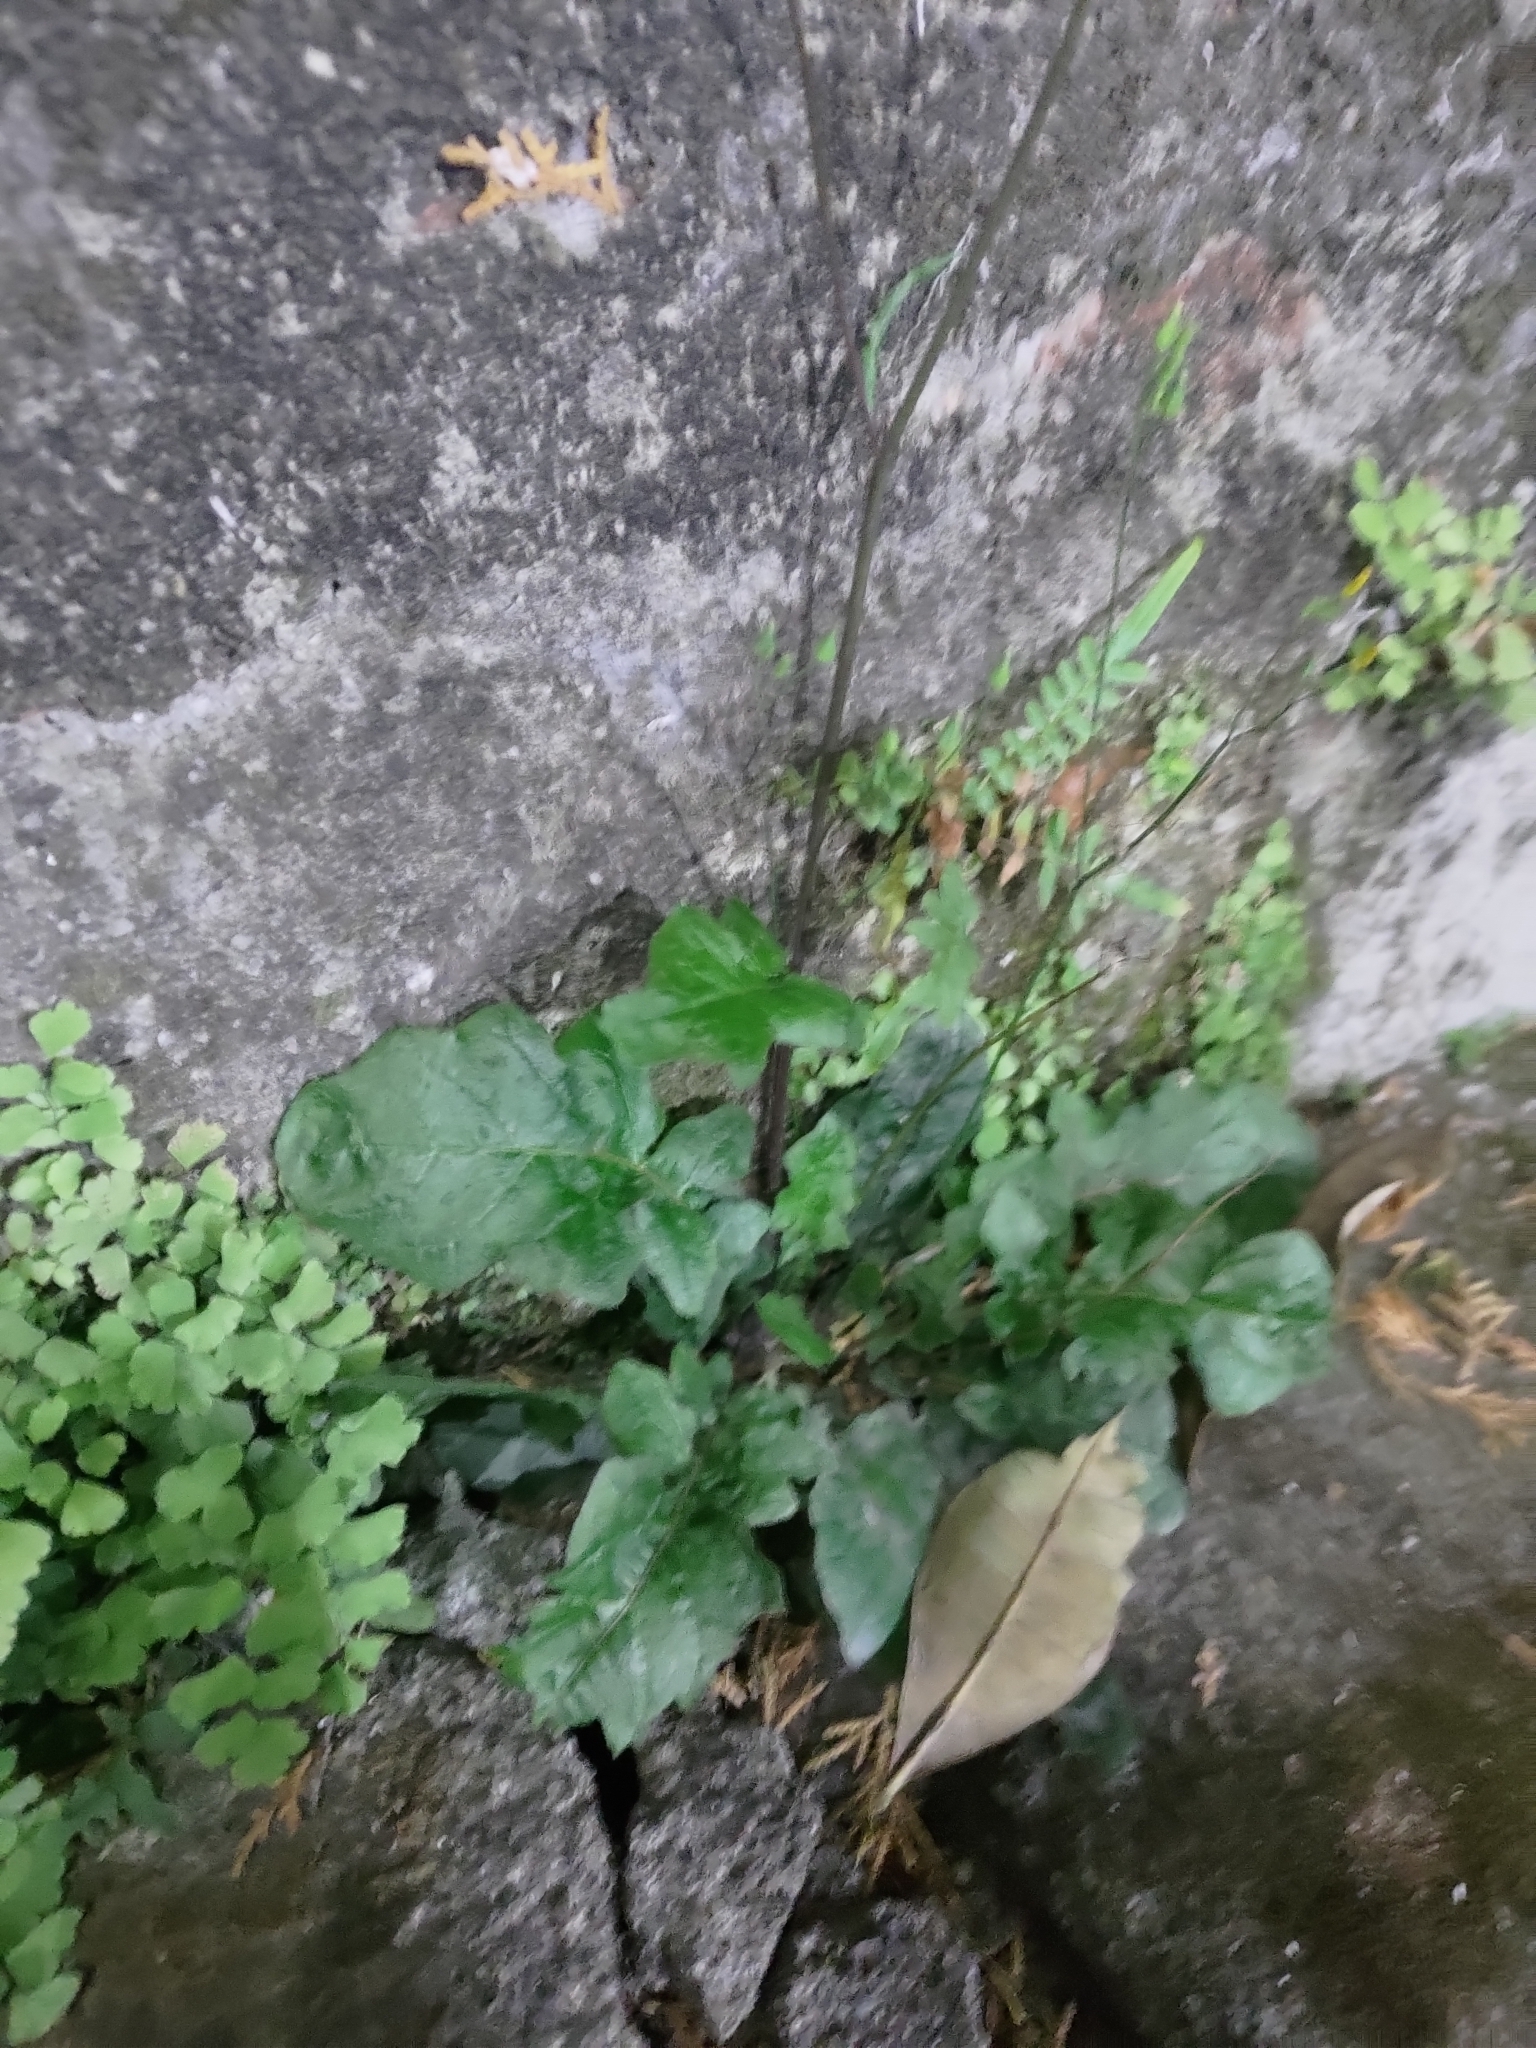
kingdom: Plantae
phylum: Tracheophyta
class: Magnoliopsida
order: Asterales
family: Asteraceae
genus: Youngia
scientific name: Youngia japonica
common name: Oriental false hawksbeard
